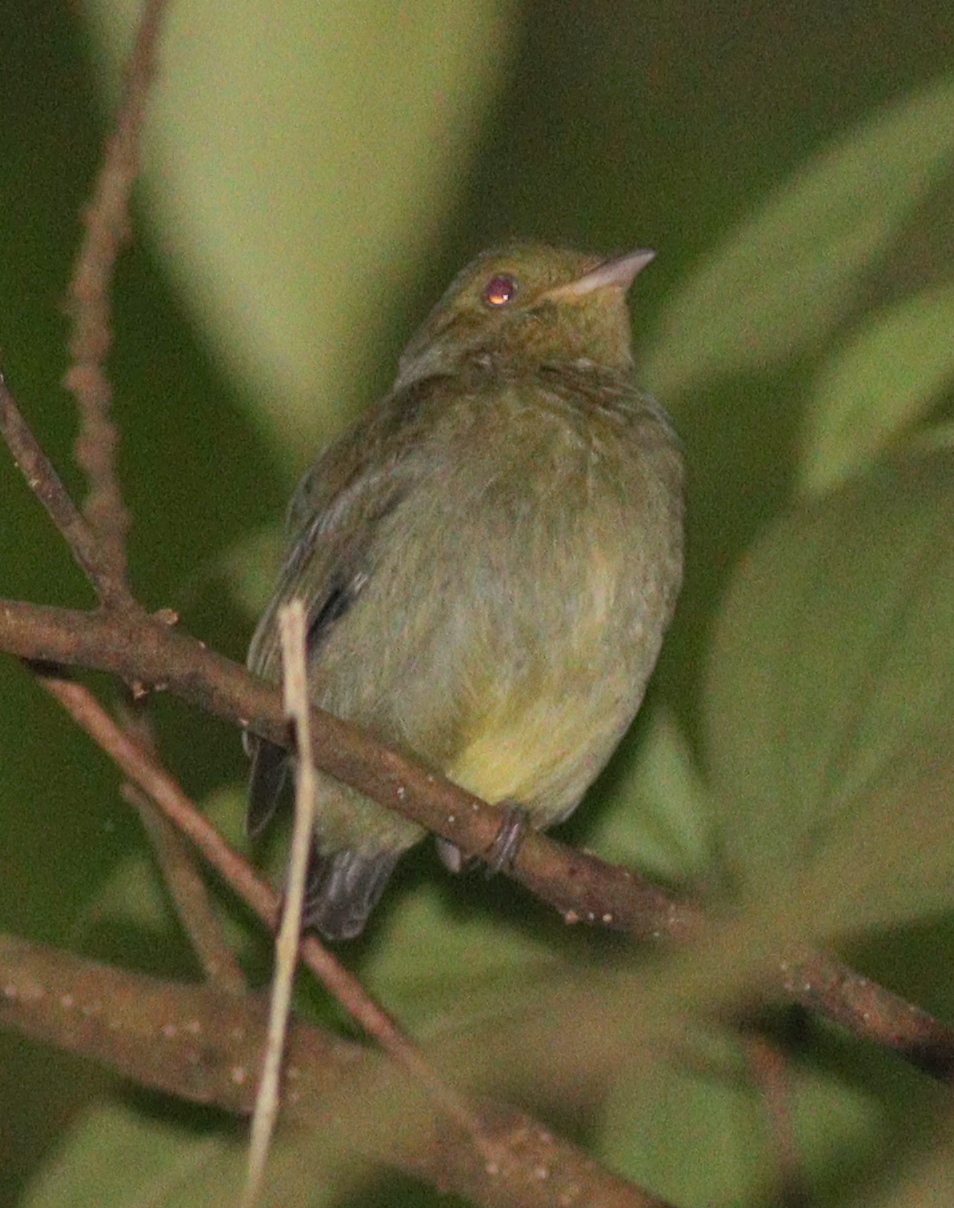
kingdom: Animalia
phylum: Chordata
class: Aves
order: Passeriformes
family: Pipridae
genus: Pipra
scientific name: Pipra mentalis
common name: Red-capped manakin
